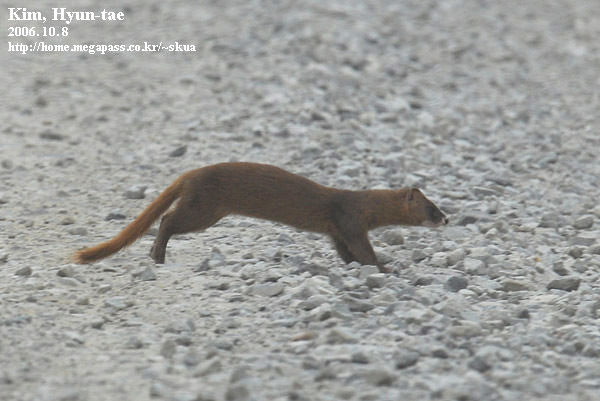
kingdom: Animalia
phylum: Chordata
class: Mammalia
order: Carnivora
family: Mustelidae
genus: Mustela
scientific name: Mustela sibirica
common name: Siberian weasel
